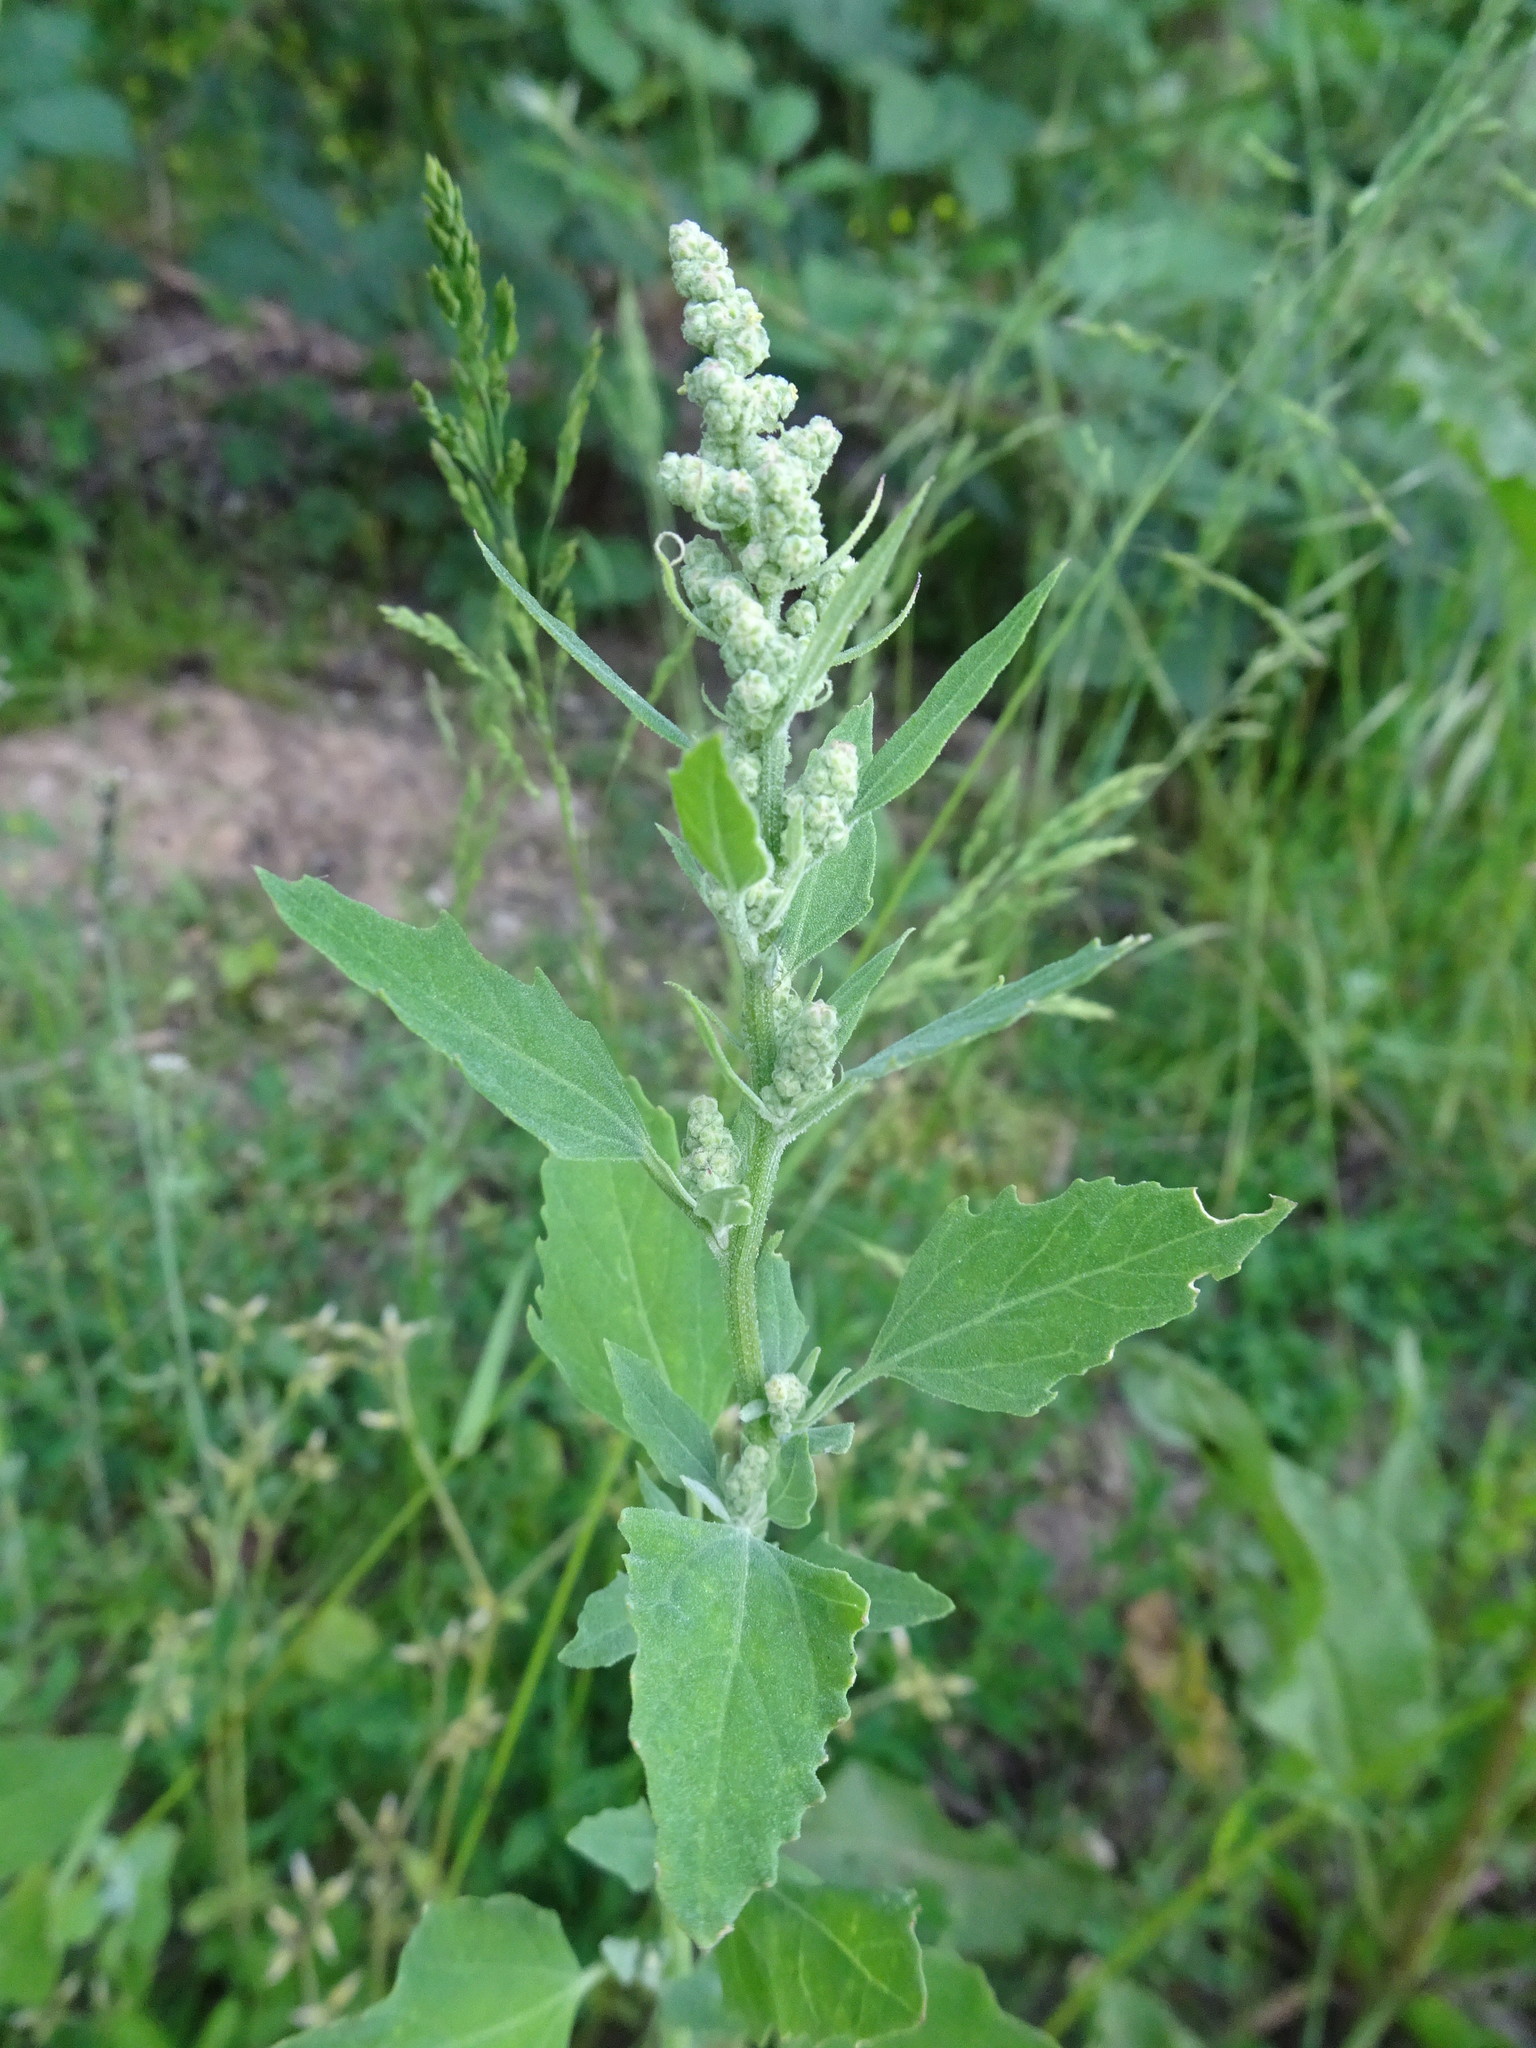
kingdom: Plantae
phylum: Tracheophyta
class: Magnoliopsida
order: Caryophyllales
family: Amaranthaceae
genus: Chenopodium
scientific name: Chenopodium album
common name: Fat-hen
